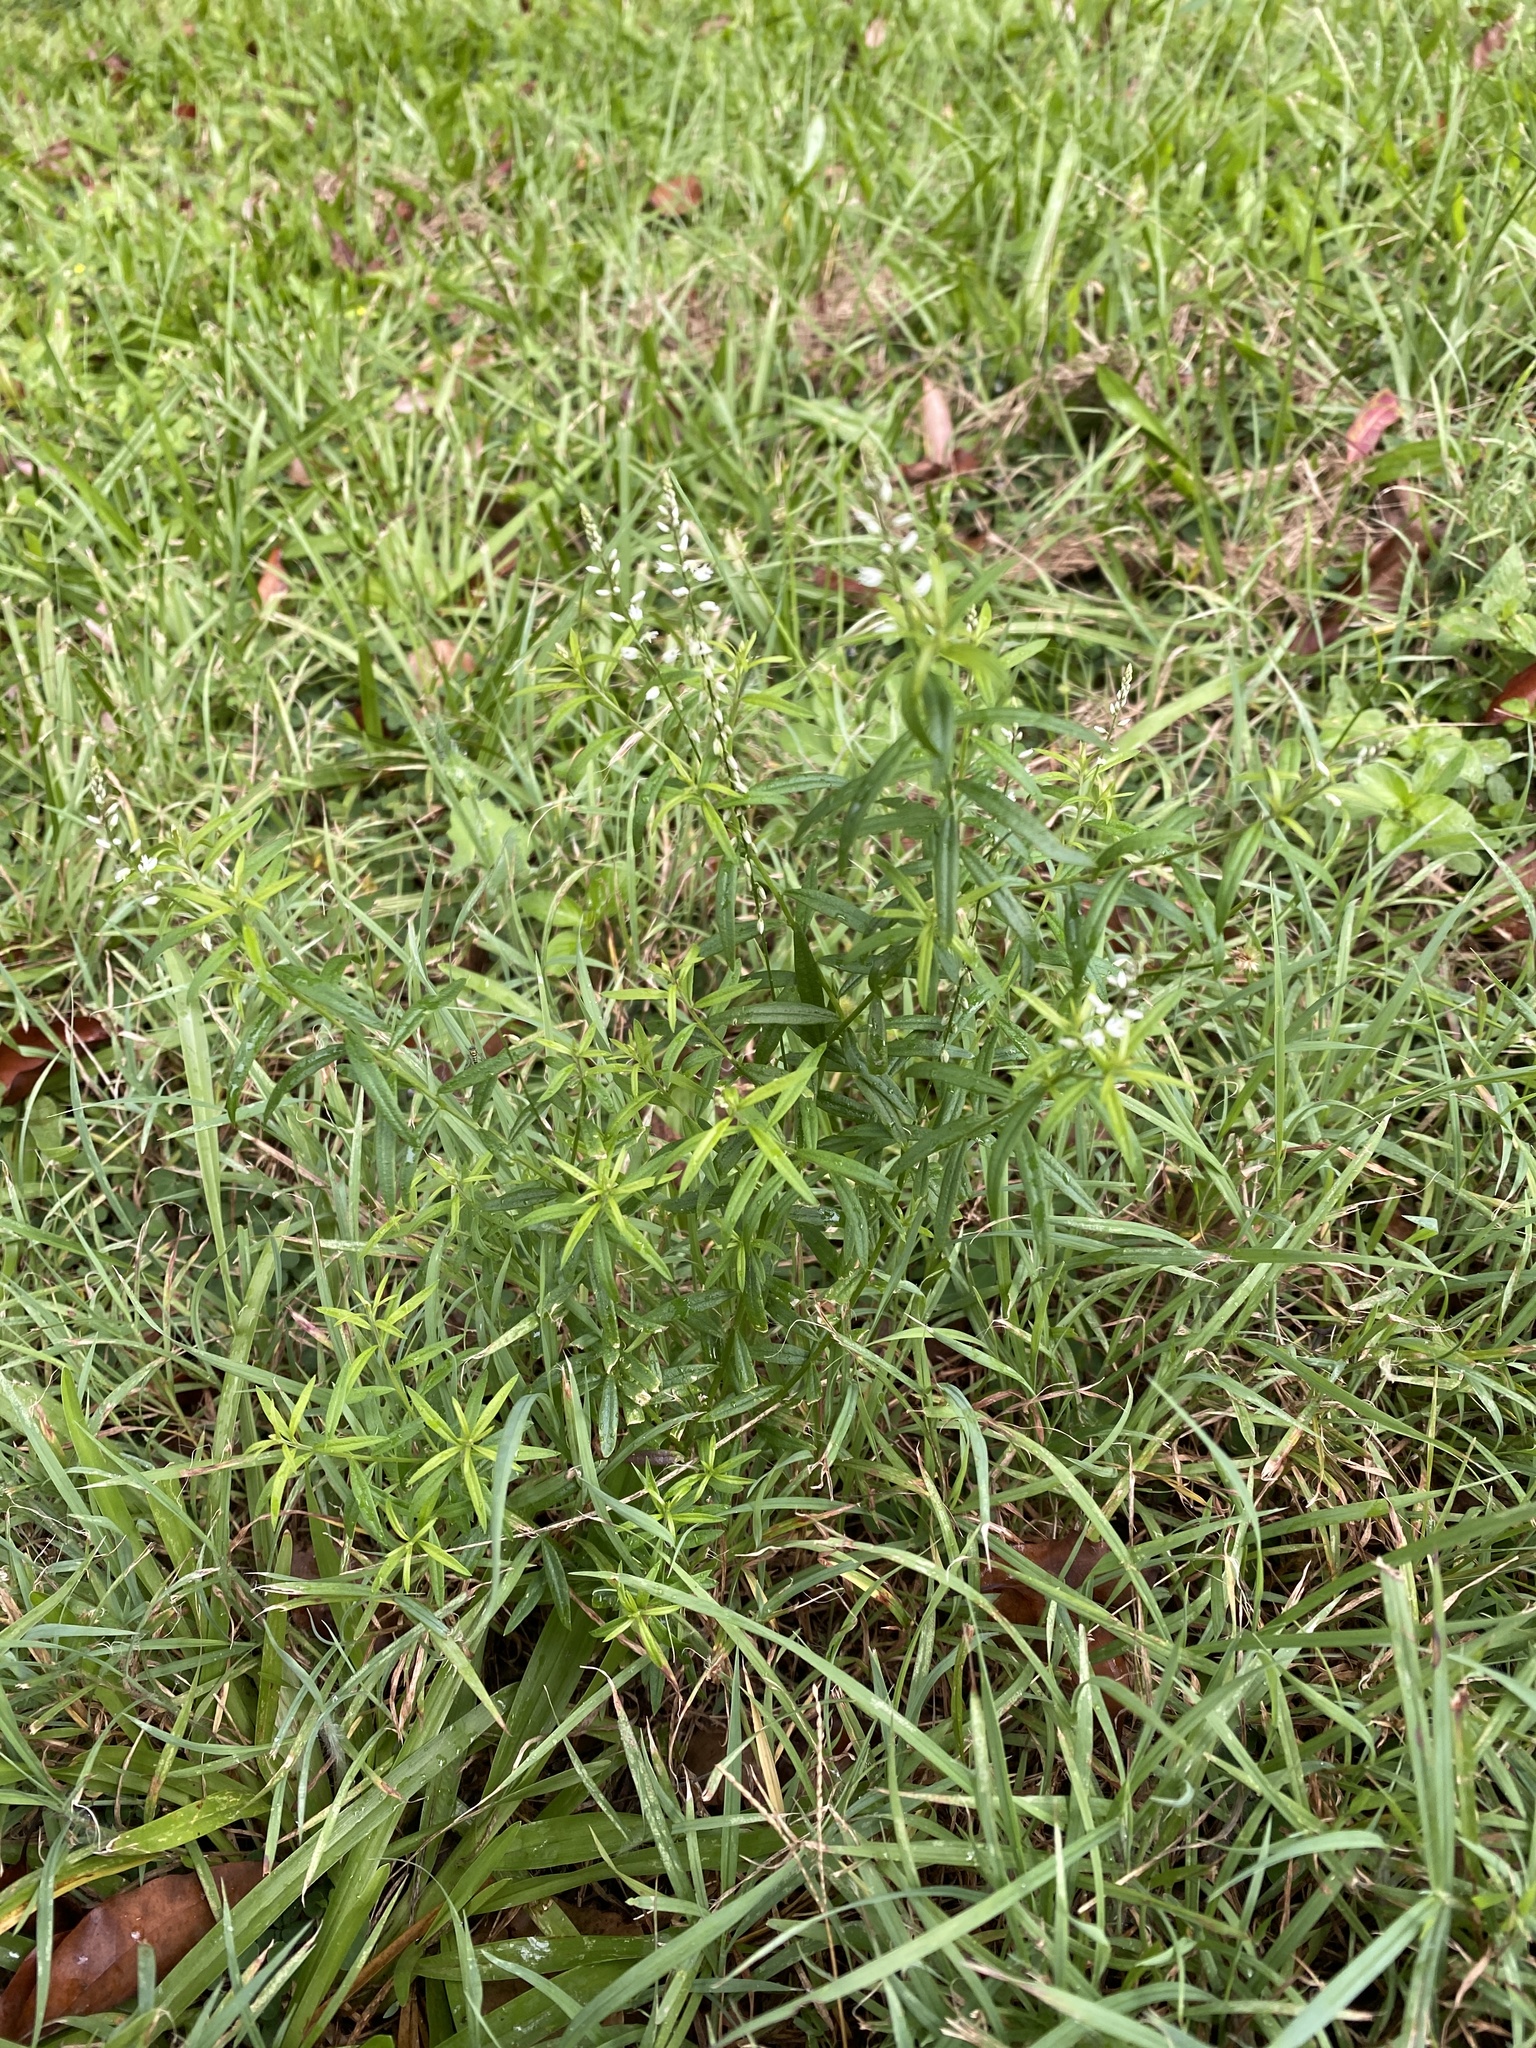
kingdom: Plantae
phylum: Tracheophyta
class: Magnoliopsida
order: Fabales
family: Polygalaceae
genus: Polygala
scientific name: Polygala paniculata
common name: Orosne
